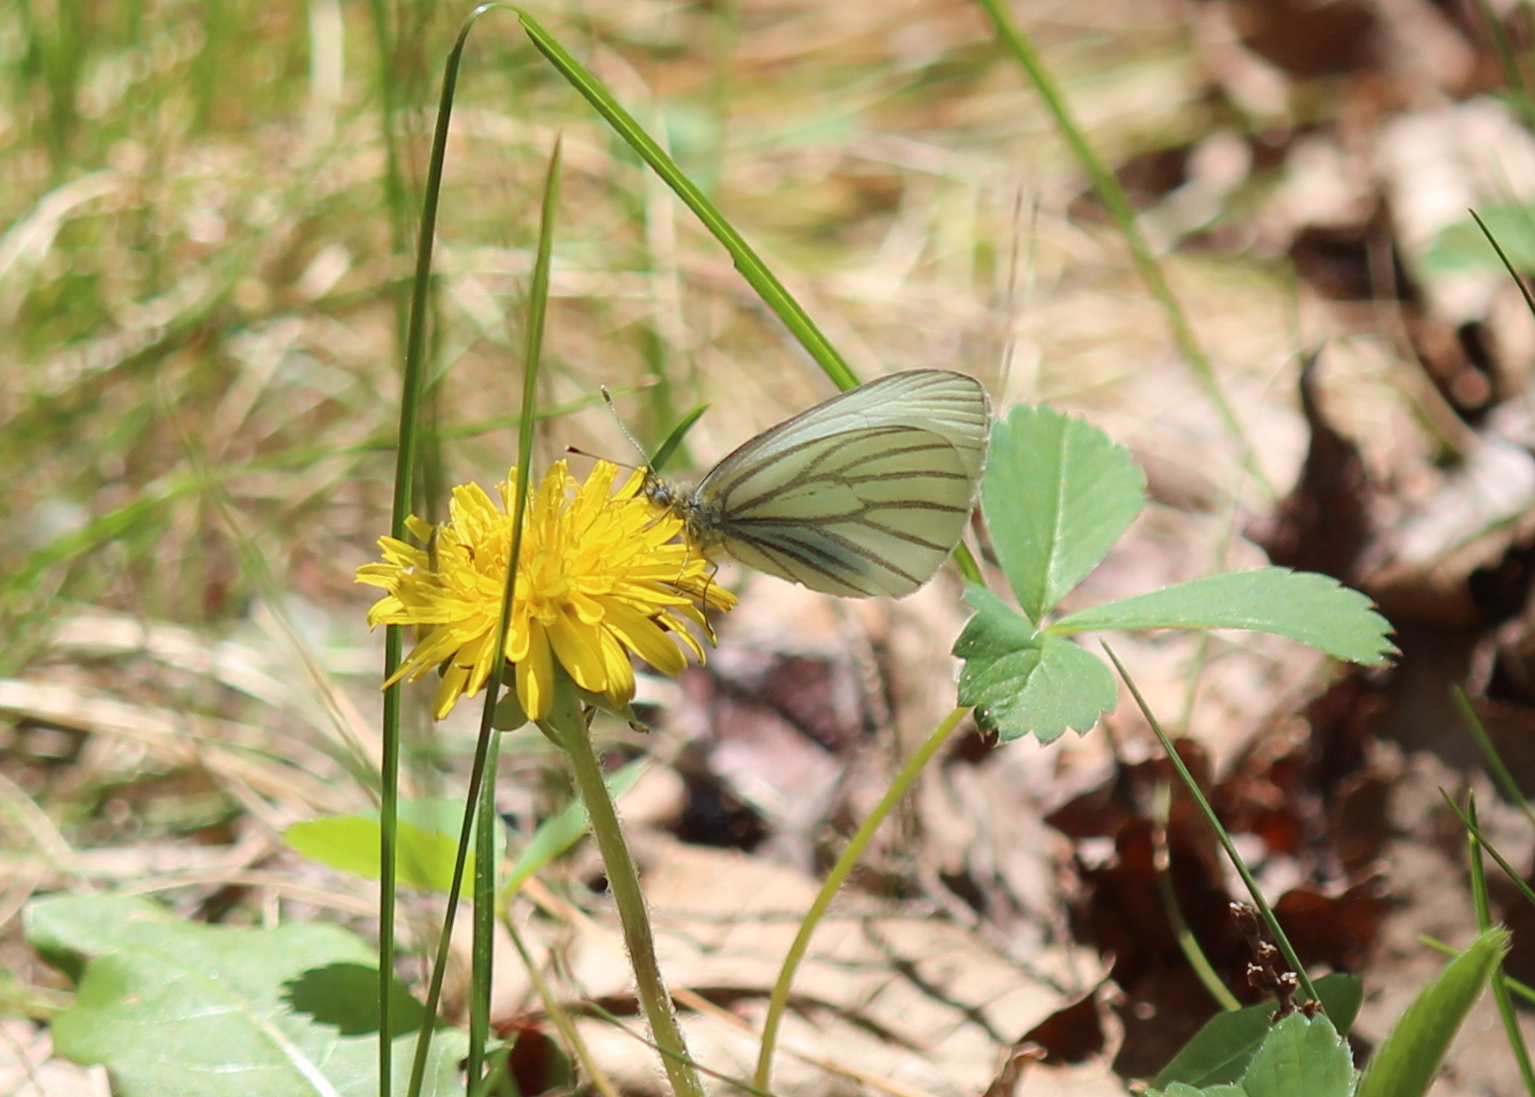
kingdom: Animalia
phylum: Arthropoda
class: Insecta
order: Lepidoptera
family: Pieridae
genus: Pieris
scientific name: Pieris oleracea
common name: Mustard white
